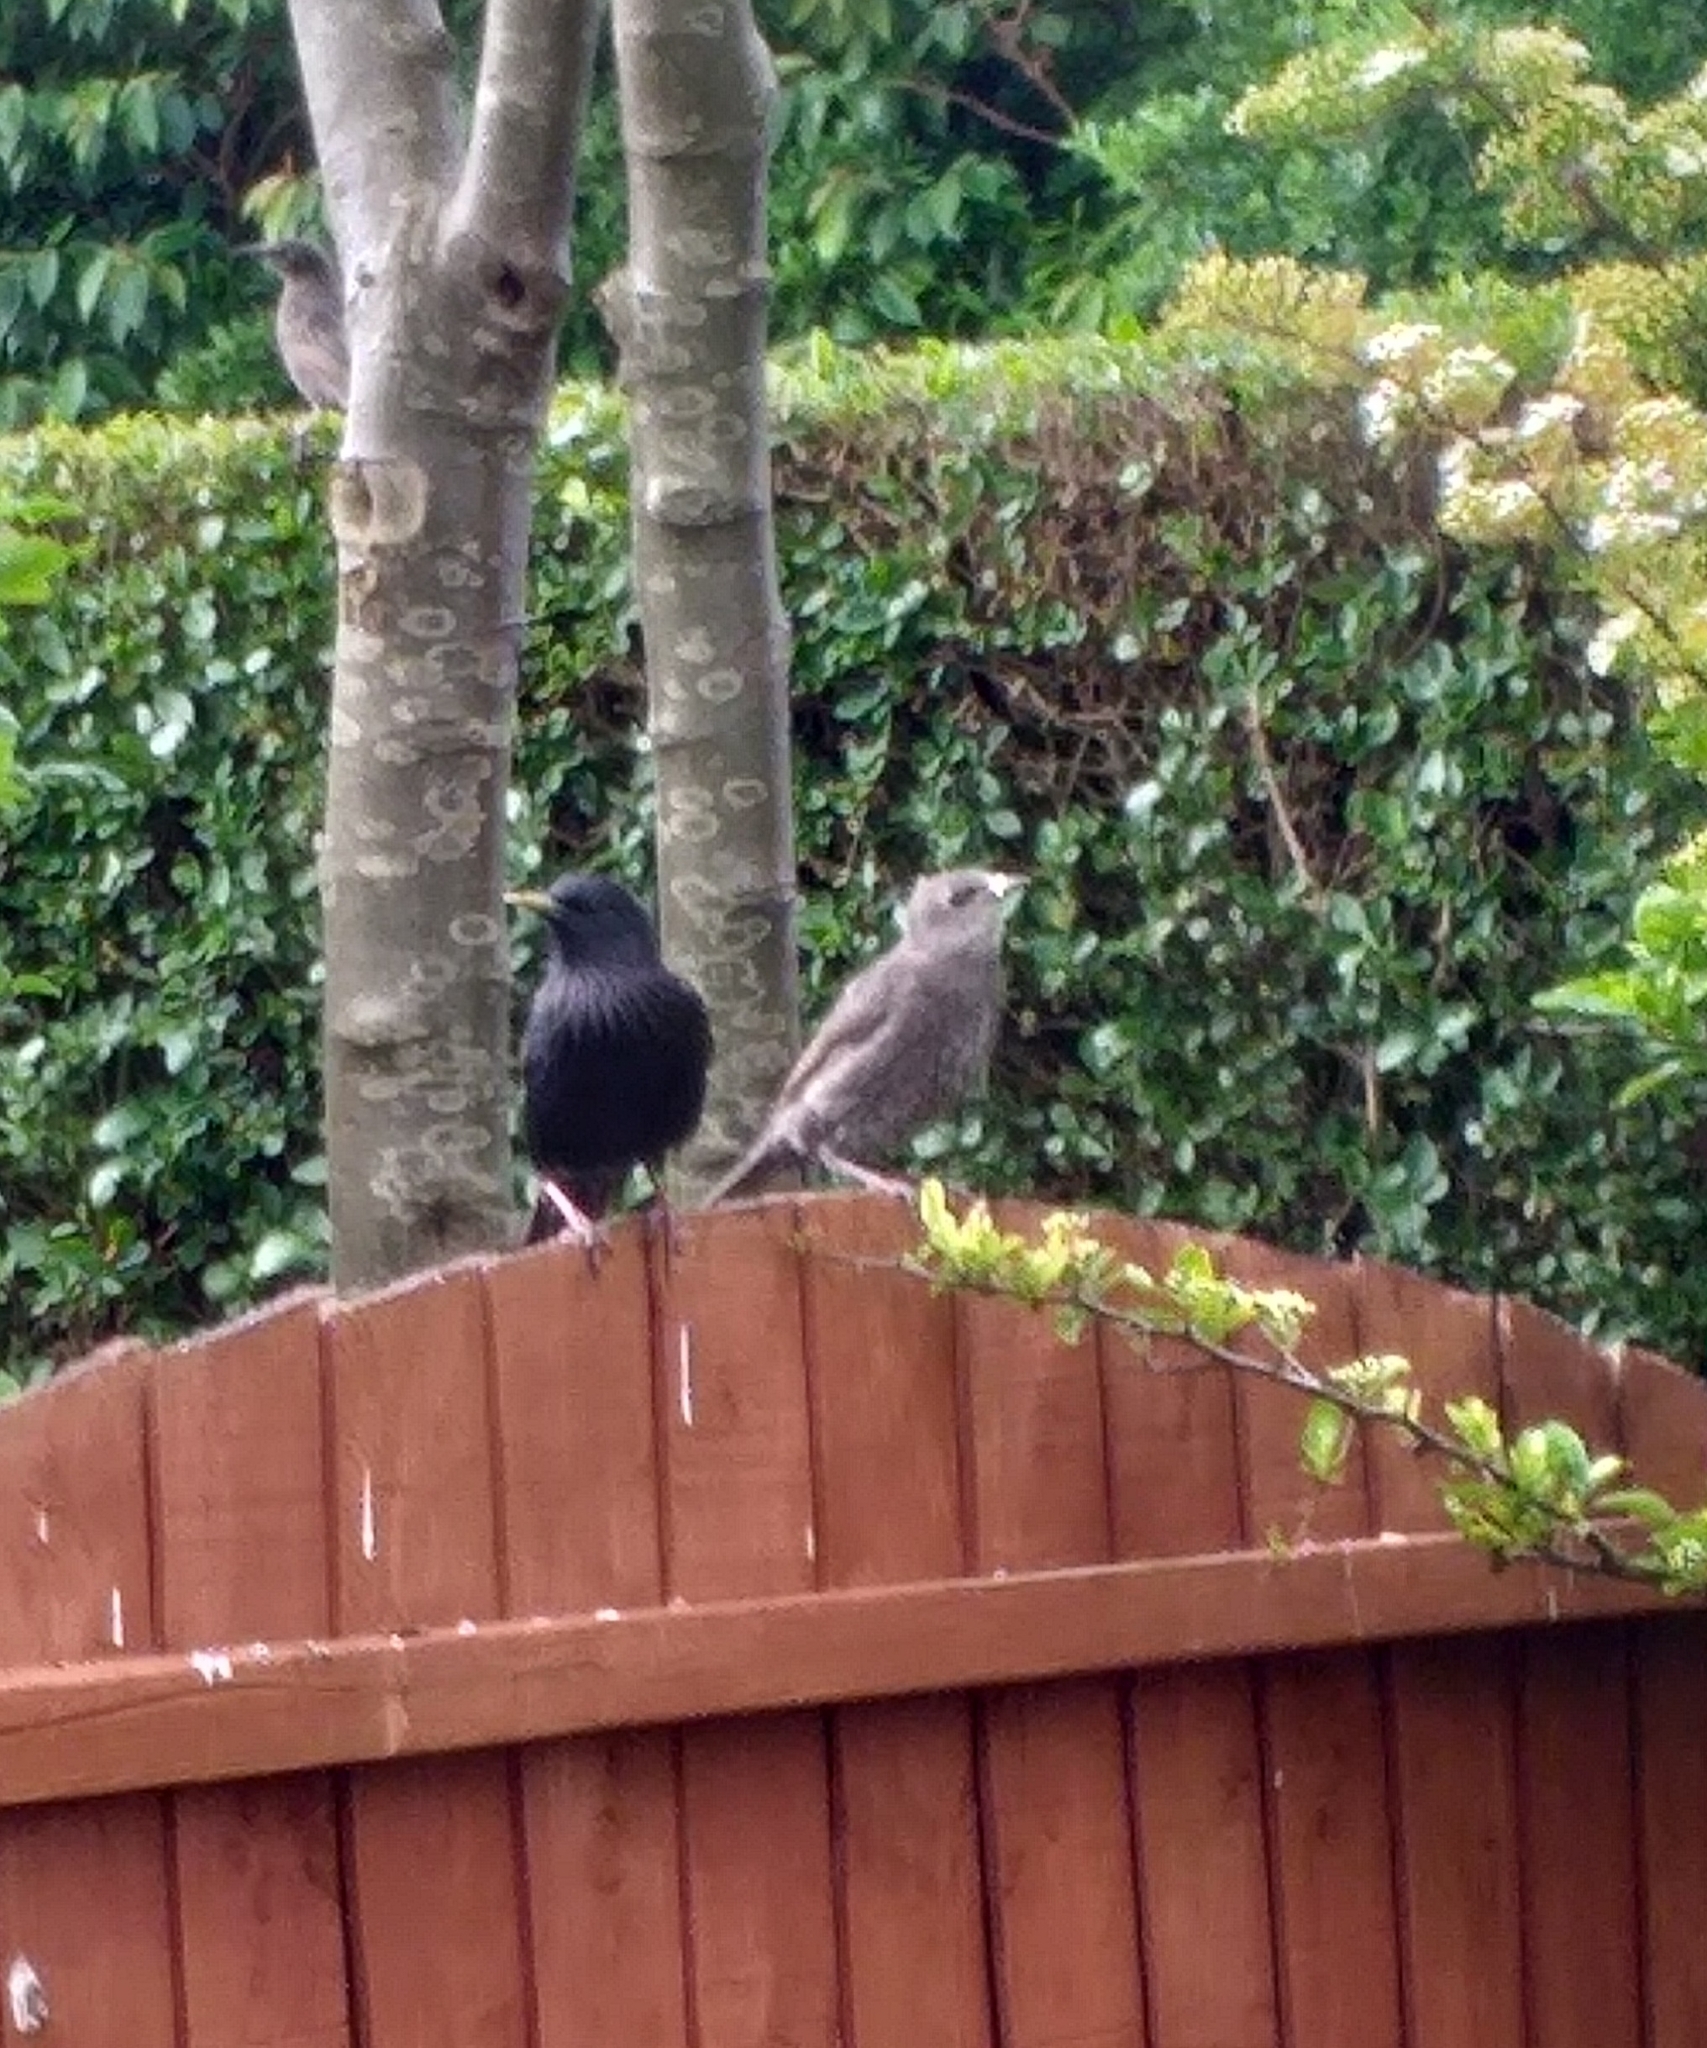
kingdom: Animalia
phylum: Chordata
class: Aves
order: Passeriformes
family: Sturnidae
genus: Sturnus
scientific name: Sturnus vulgaris
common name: Common starling
